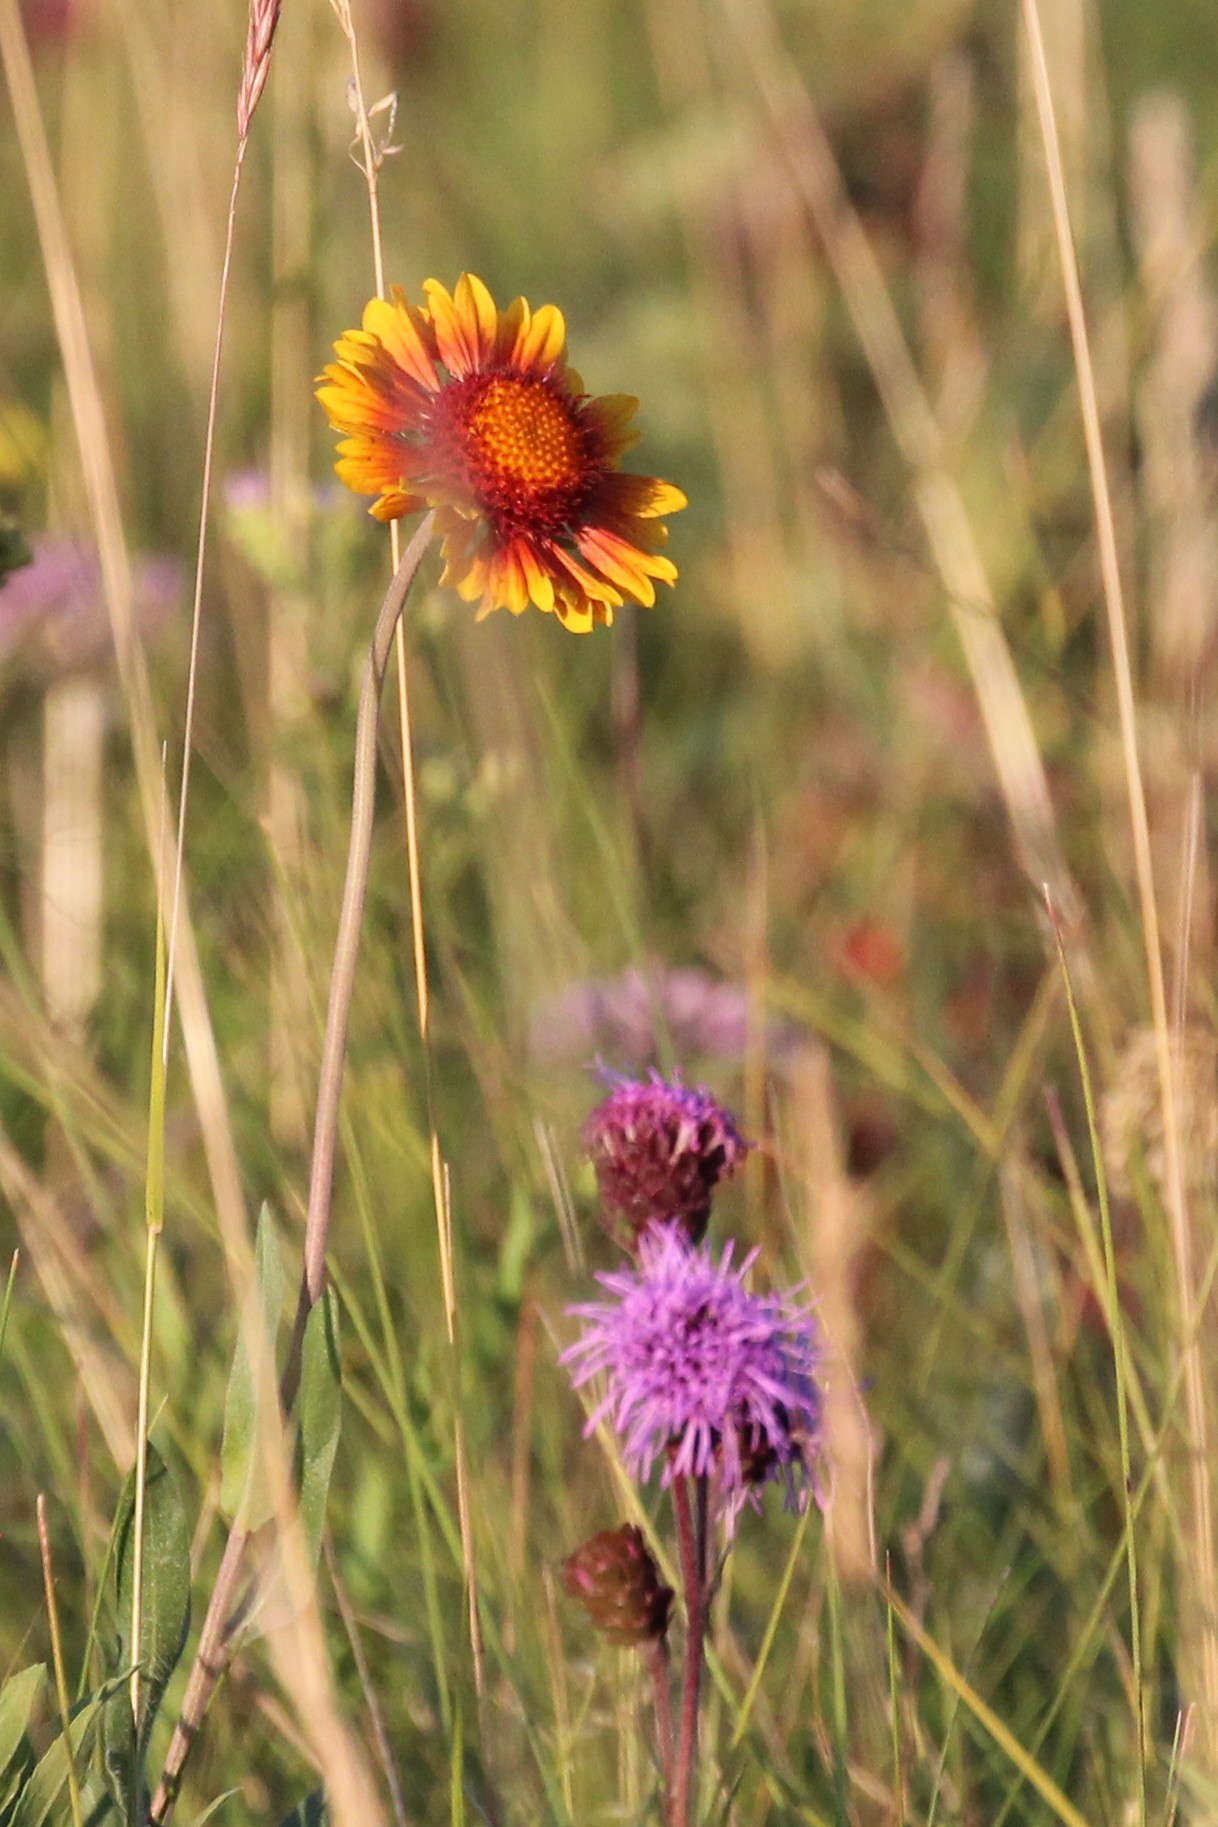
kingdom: Plantae
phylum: Tracheophyta
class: Magnoliopsida
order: Asterales
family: Asteraceae
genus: Gaillardia
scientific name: Gaillardia aristata
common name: Blanket-flower
